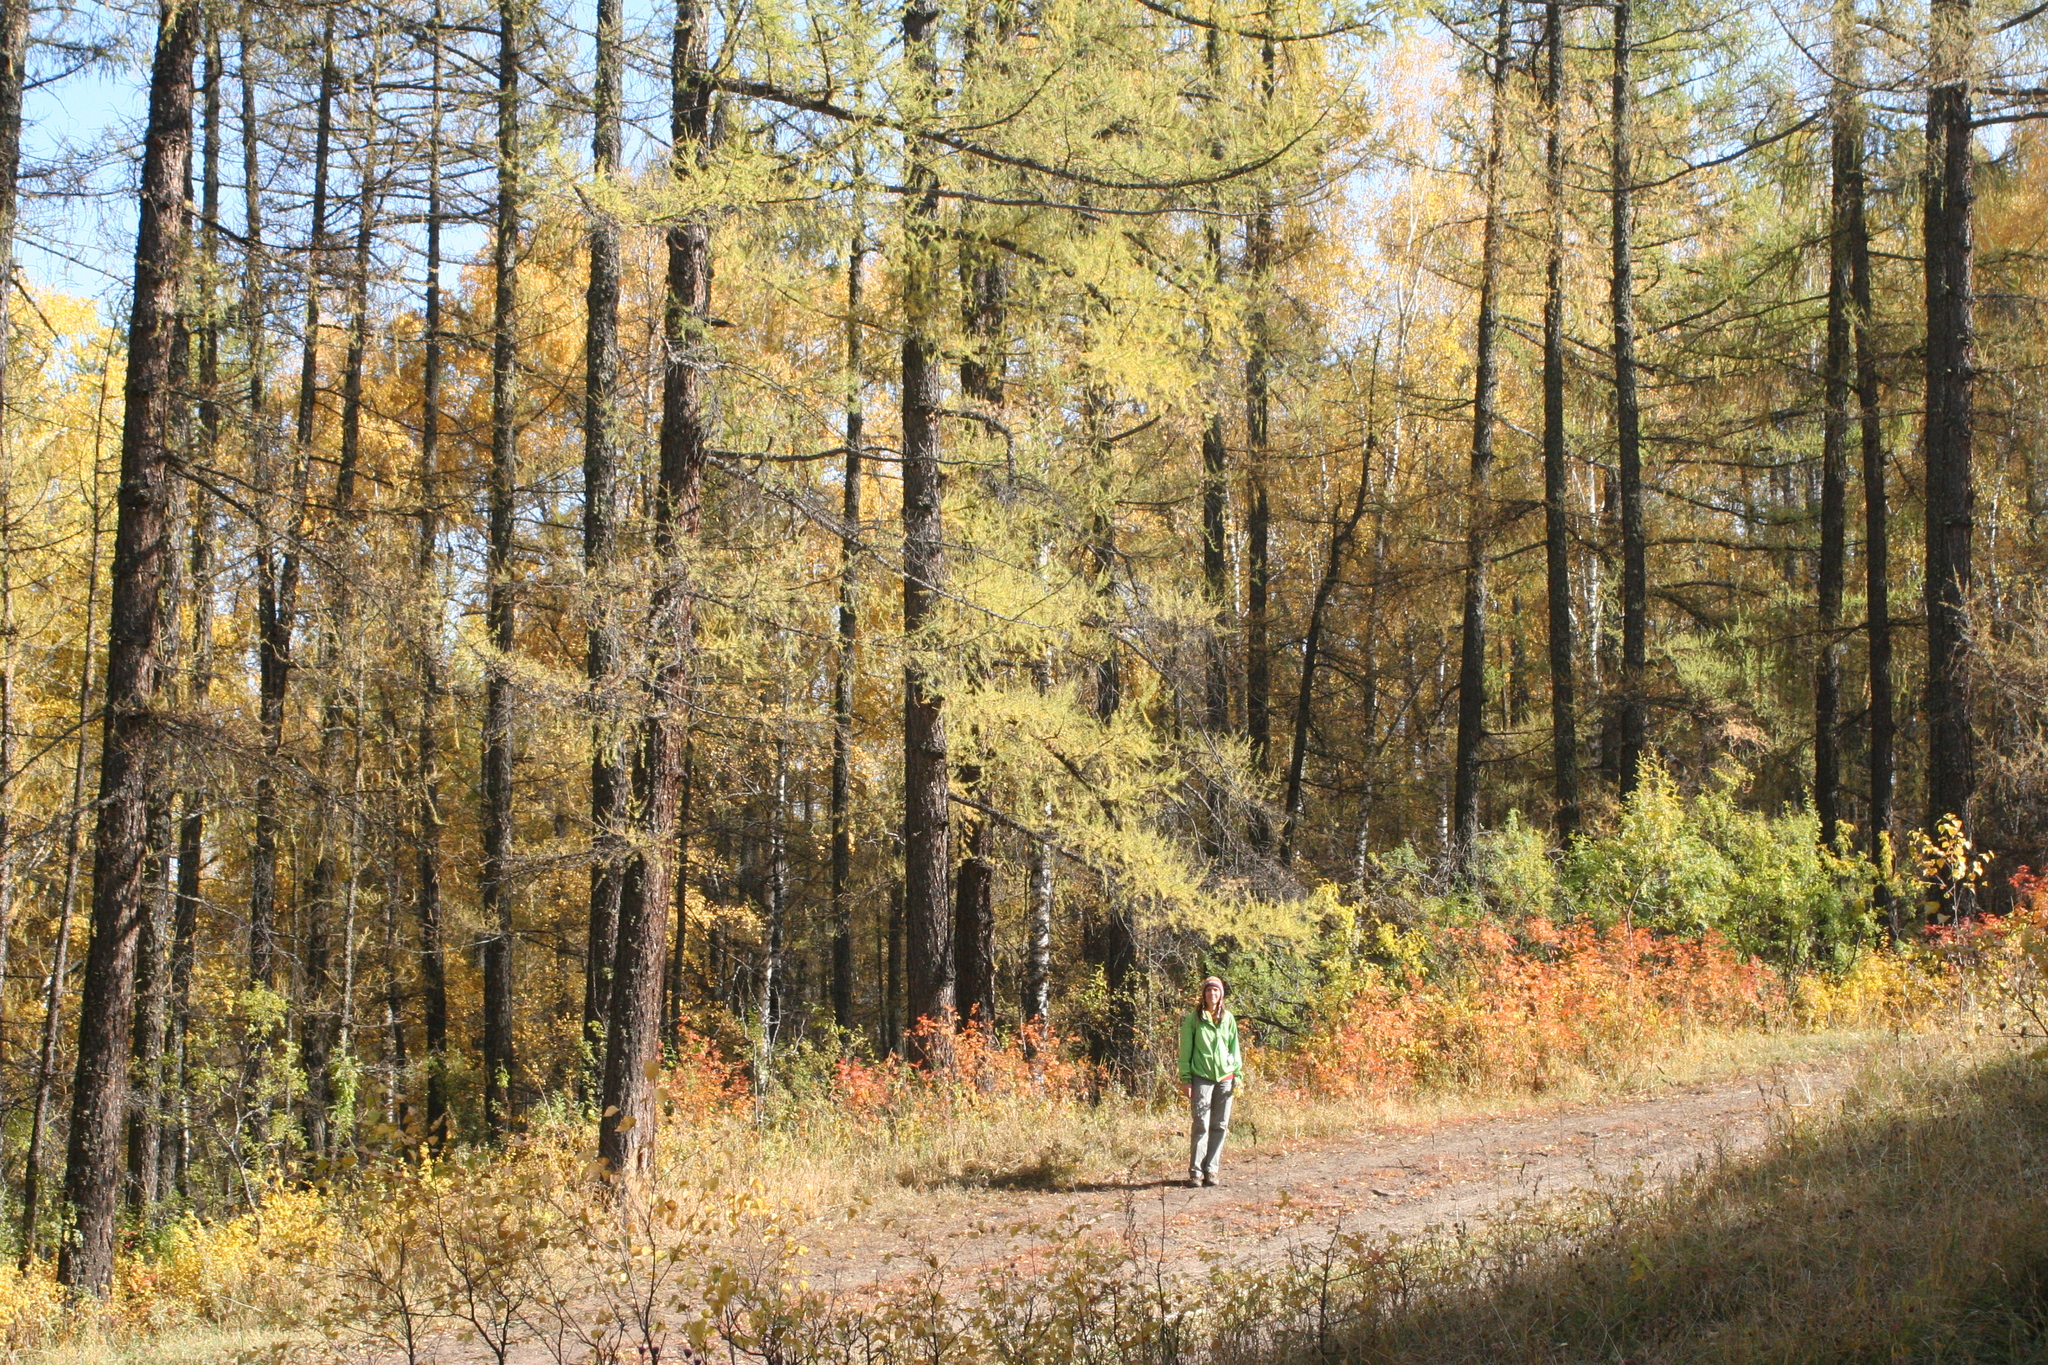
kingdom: Plantae
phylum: Tracheophyta
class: Pinopsida
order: Pinales
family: Pinaceae
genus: Larix
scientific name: Larix sibirica
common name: Siberian larch
